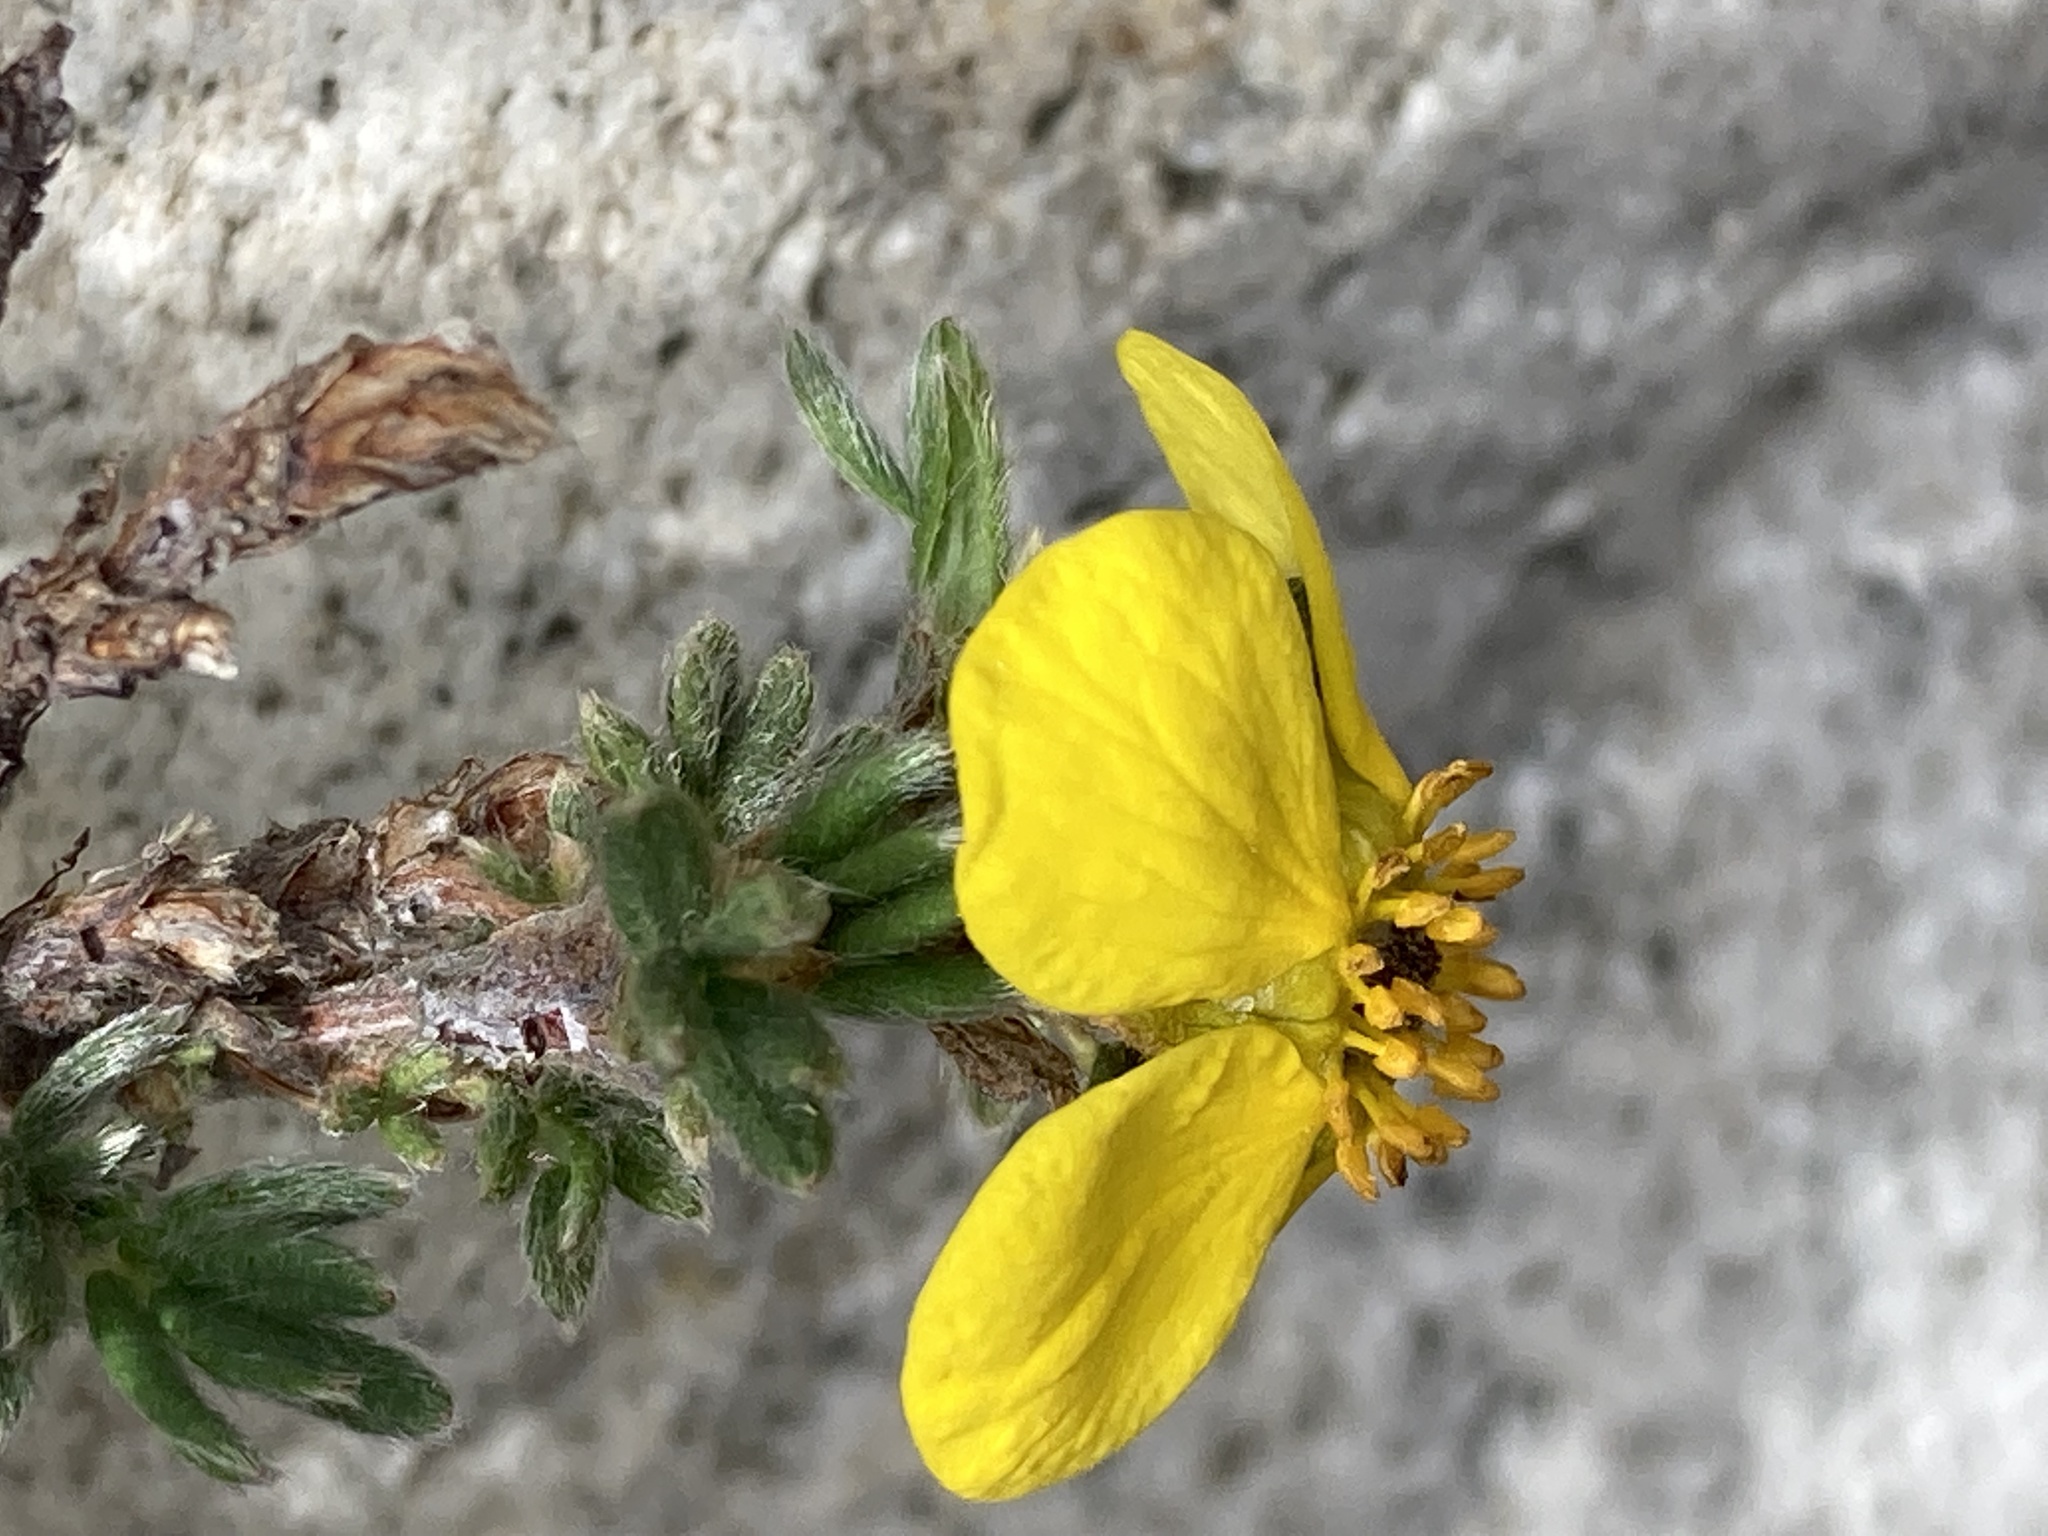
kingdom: Plantae
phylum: Tracheophyta
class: Magnoliopsida
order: Rosales
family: Rosaceae
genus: Dasiphora
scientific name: Dasiphora arbuscula
